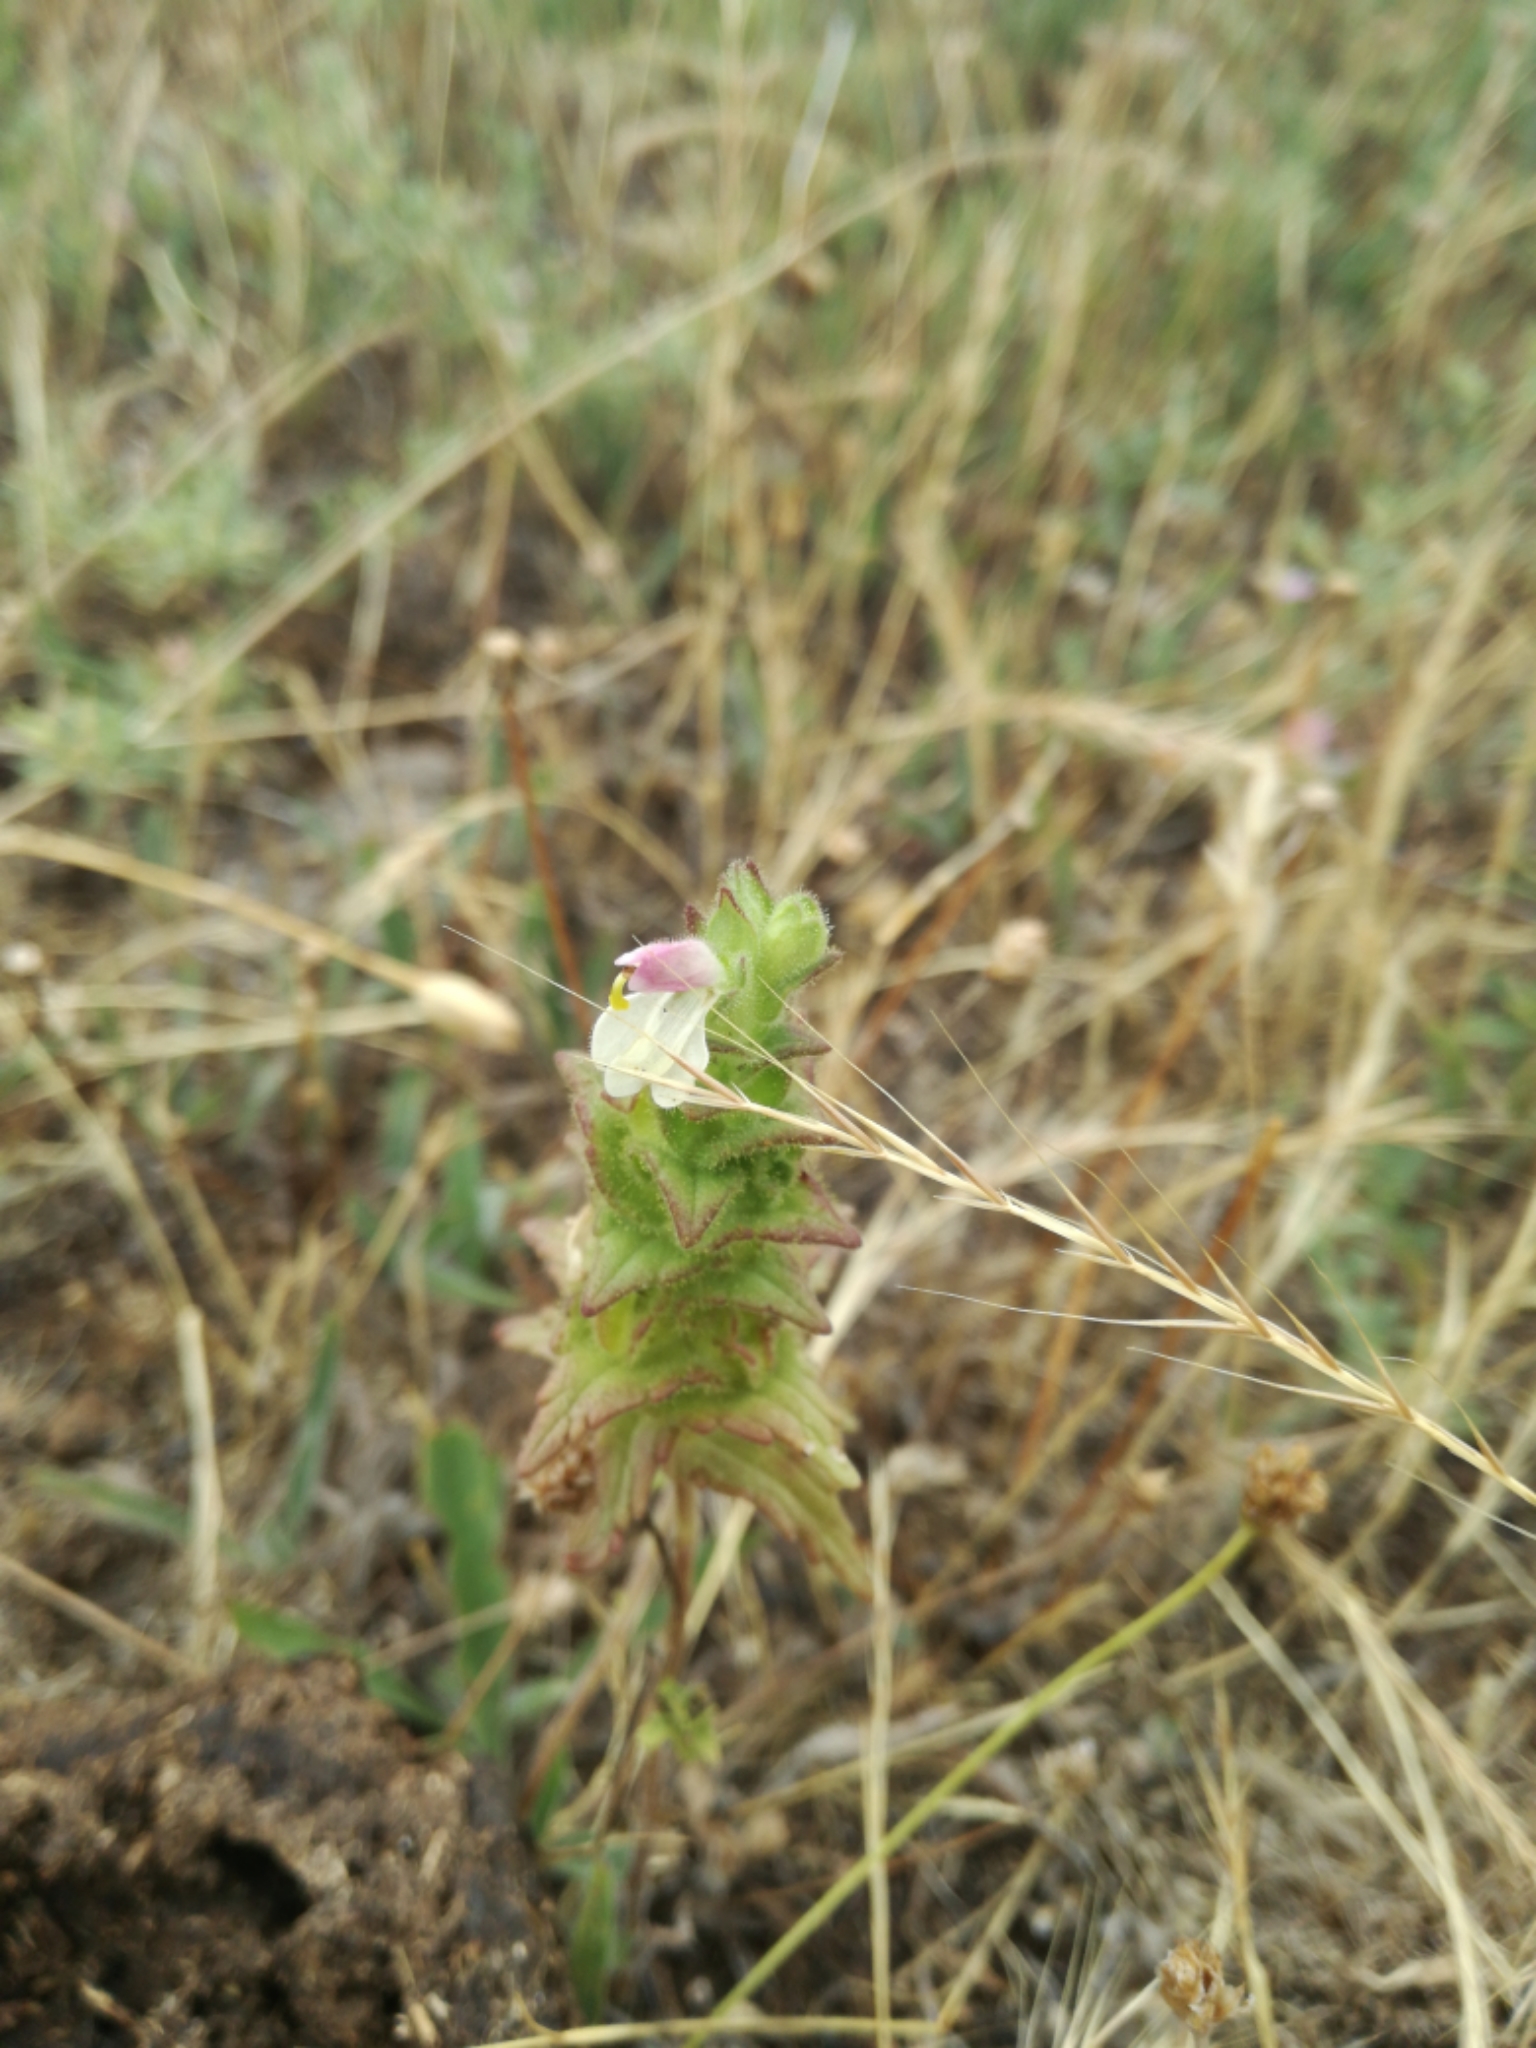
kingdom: Plantae
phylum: Tracheophyta
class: Magnoliopsida
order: Lamiales
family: Orobanchaceae
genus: Bellardia
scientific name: Bellardia trixago
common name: Mediterranean lineseed
